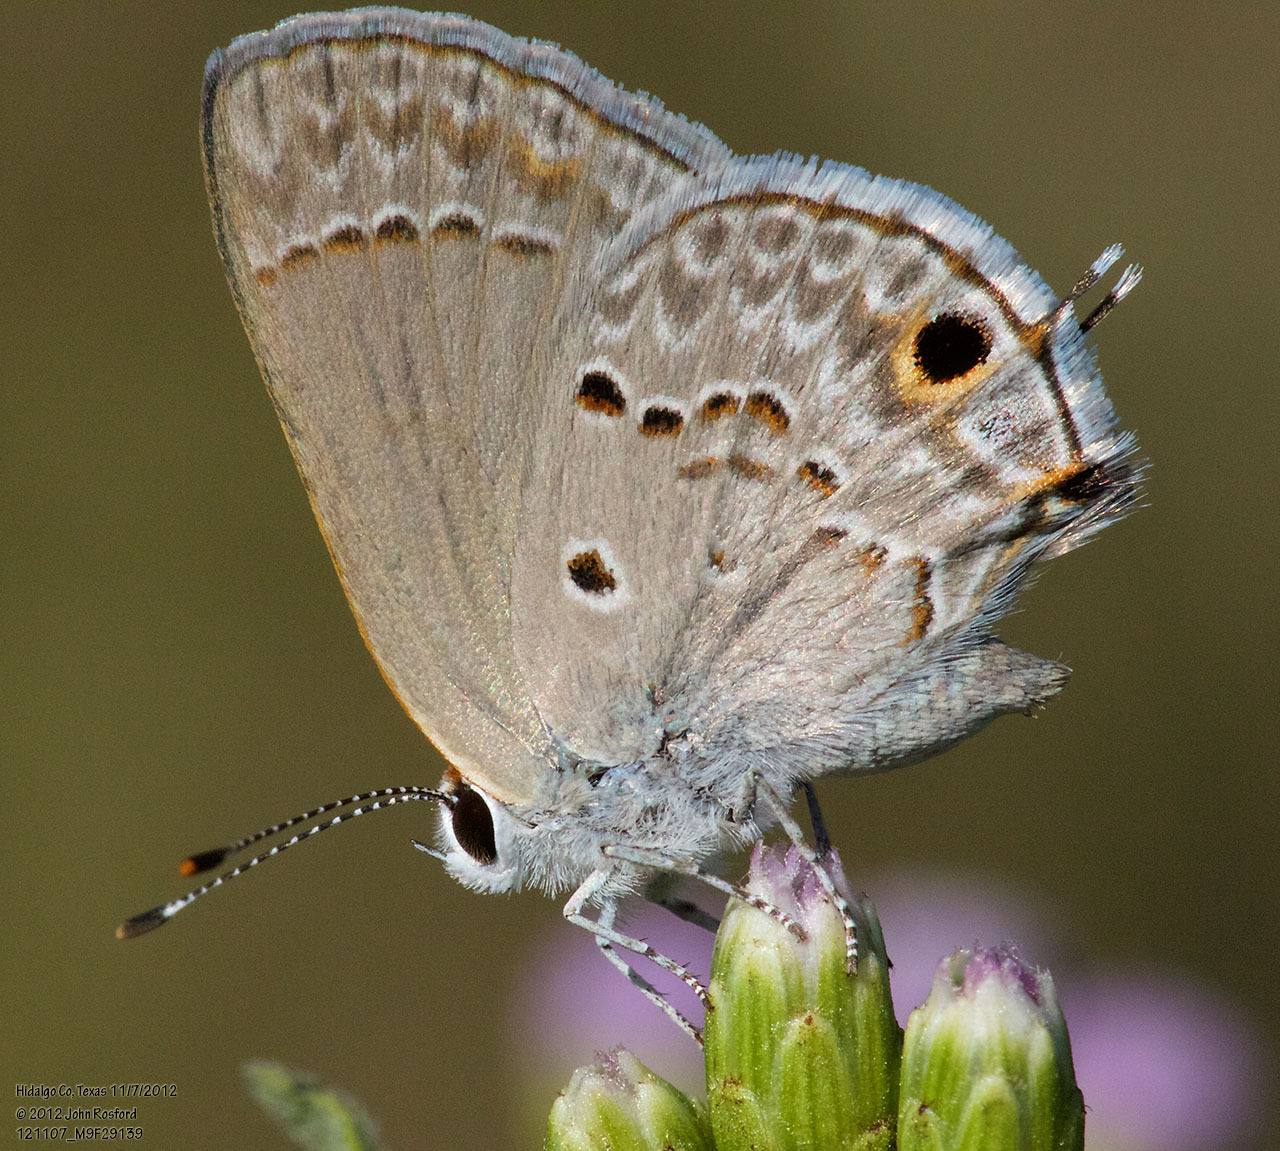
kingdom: Animalia
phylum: Arthropoda
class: Insecta
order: Lepidoptera
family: Lycaenidae
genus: Callicista
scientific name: Callicista columella
